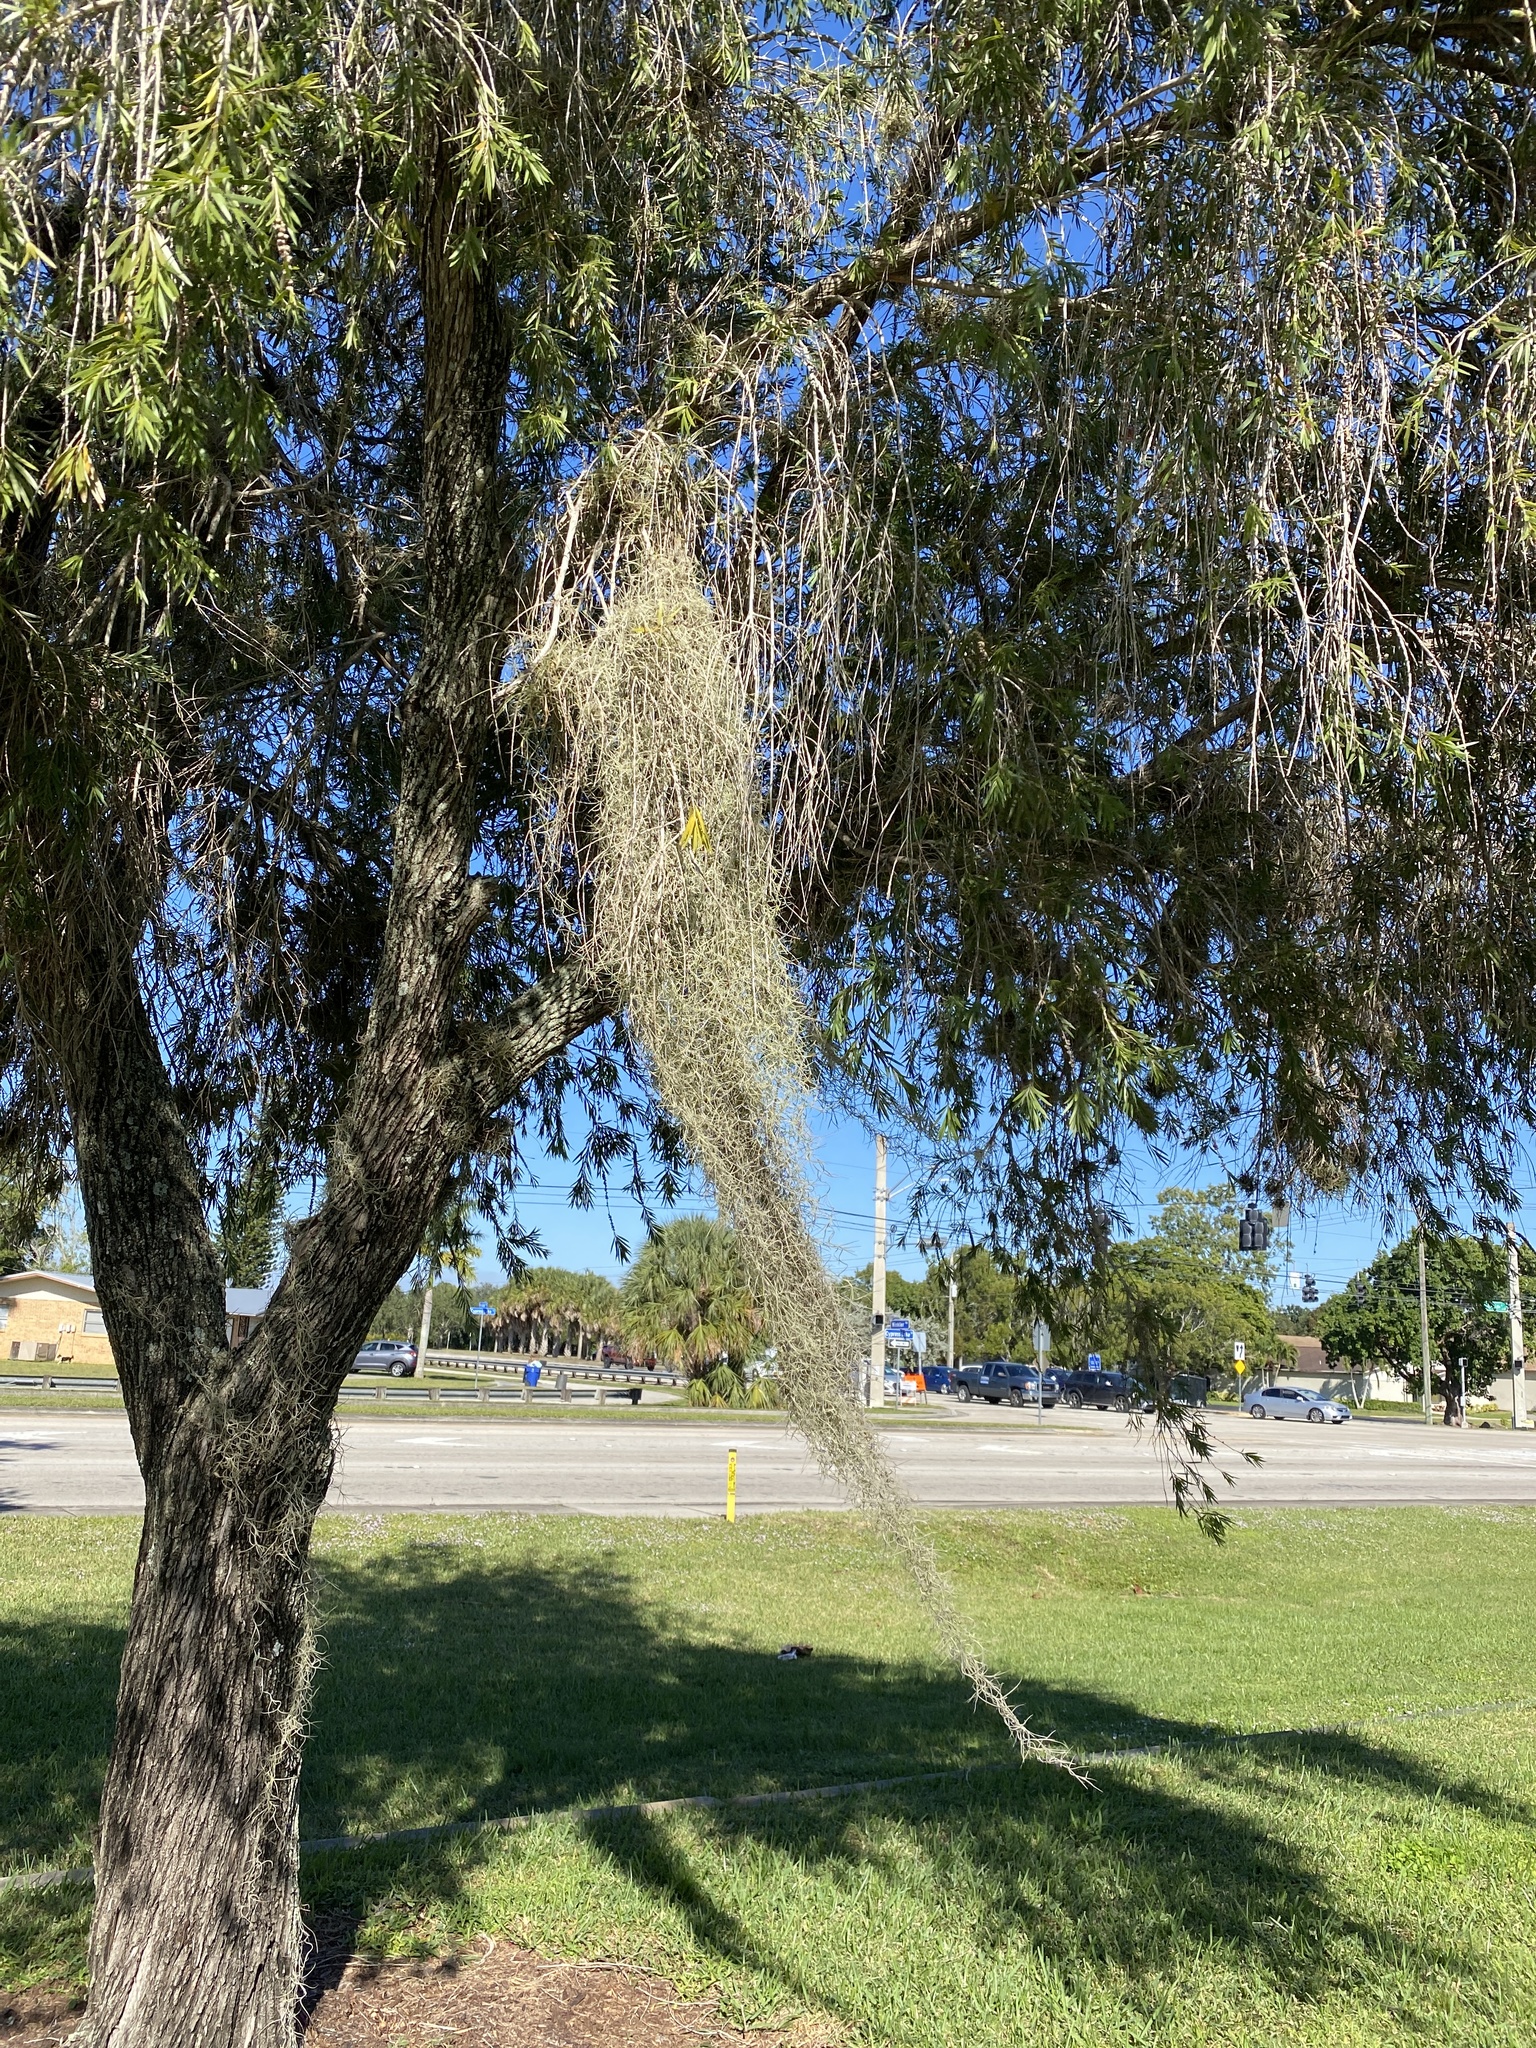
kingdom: Plantae
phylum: Tracheophyta
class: Liliopsida
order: Poales
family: Bromeliaceae
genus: Tillandsia
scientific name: Tillandsia usneoides
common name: Spanish moss
